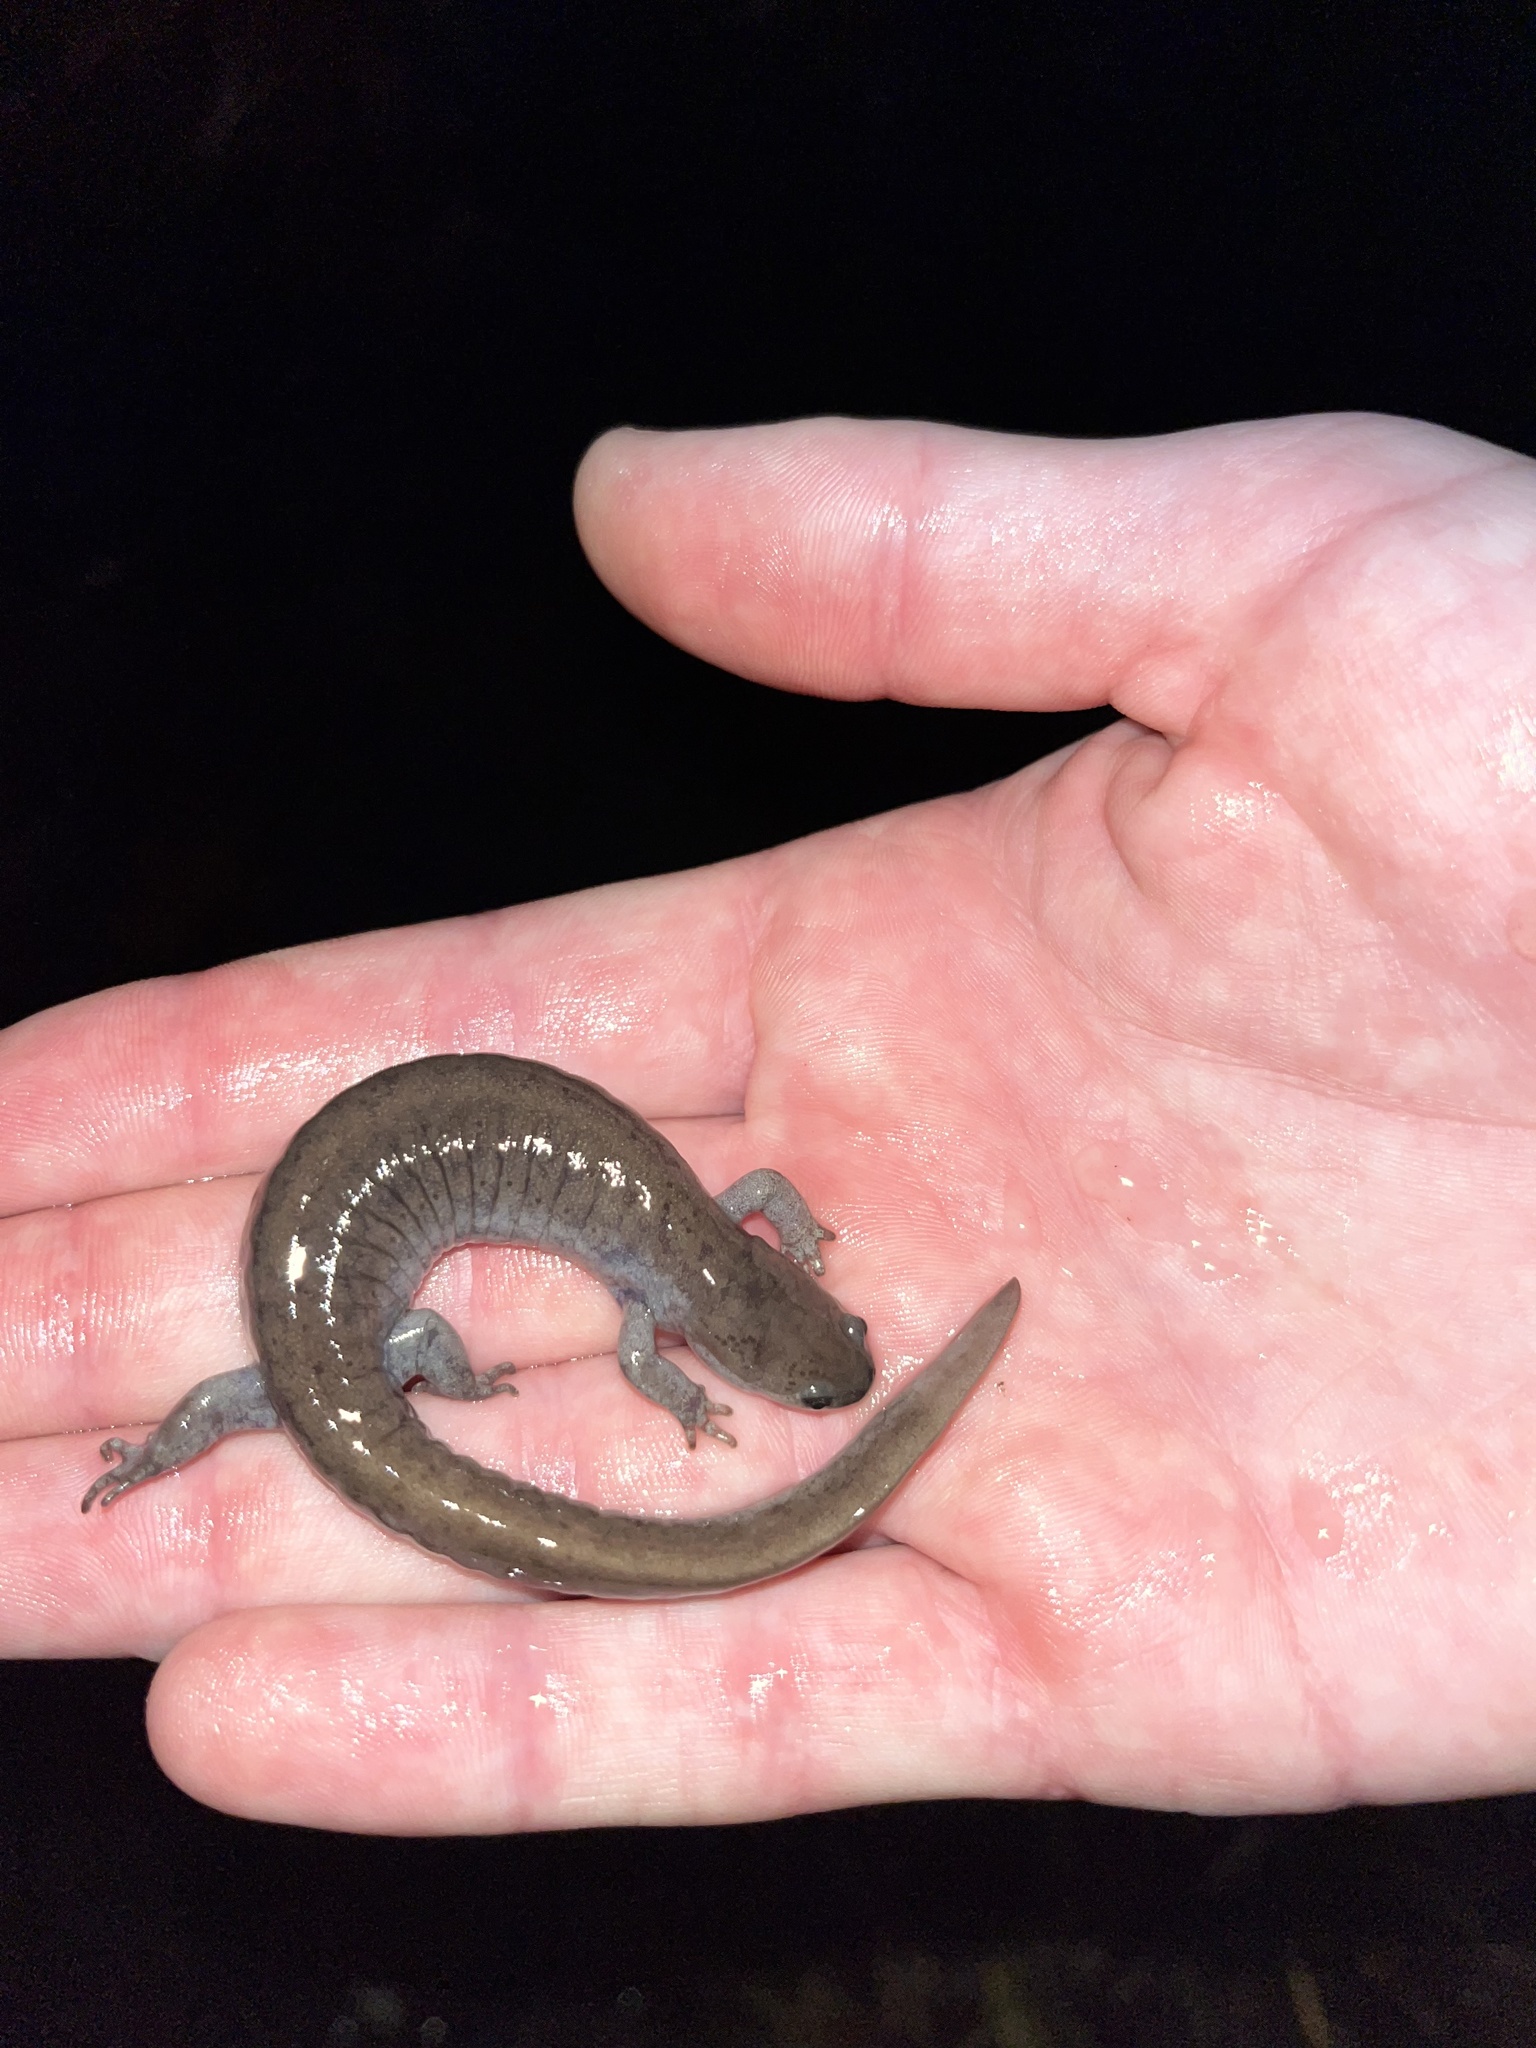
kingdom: Animalia
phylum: Chordata
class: Amphibia
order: Caudata
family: Ambystomatidae
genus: Ambystoma
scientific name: Ambystoma texanum
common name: Small-mouth salamander
